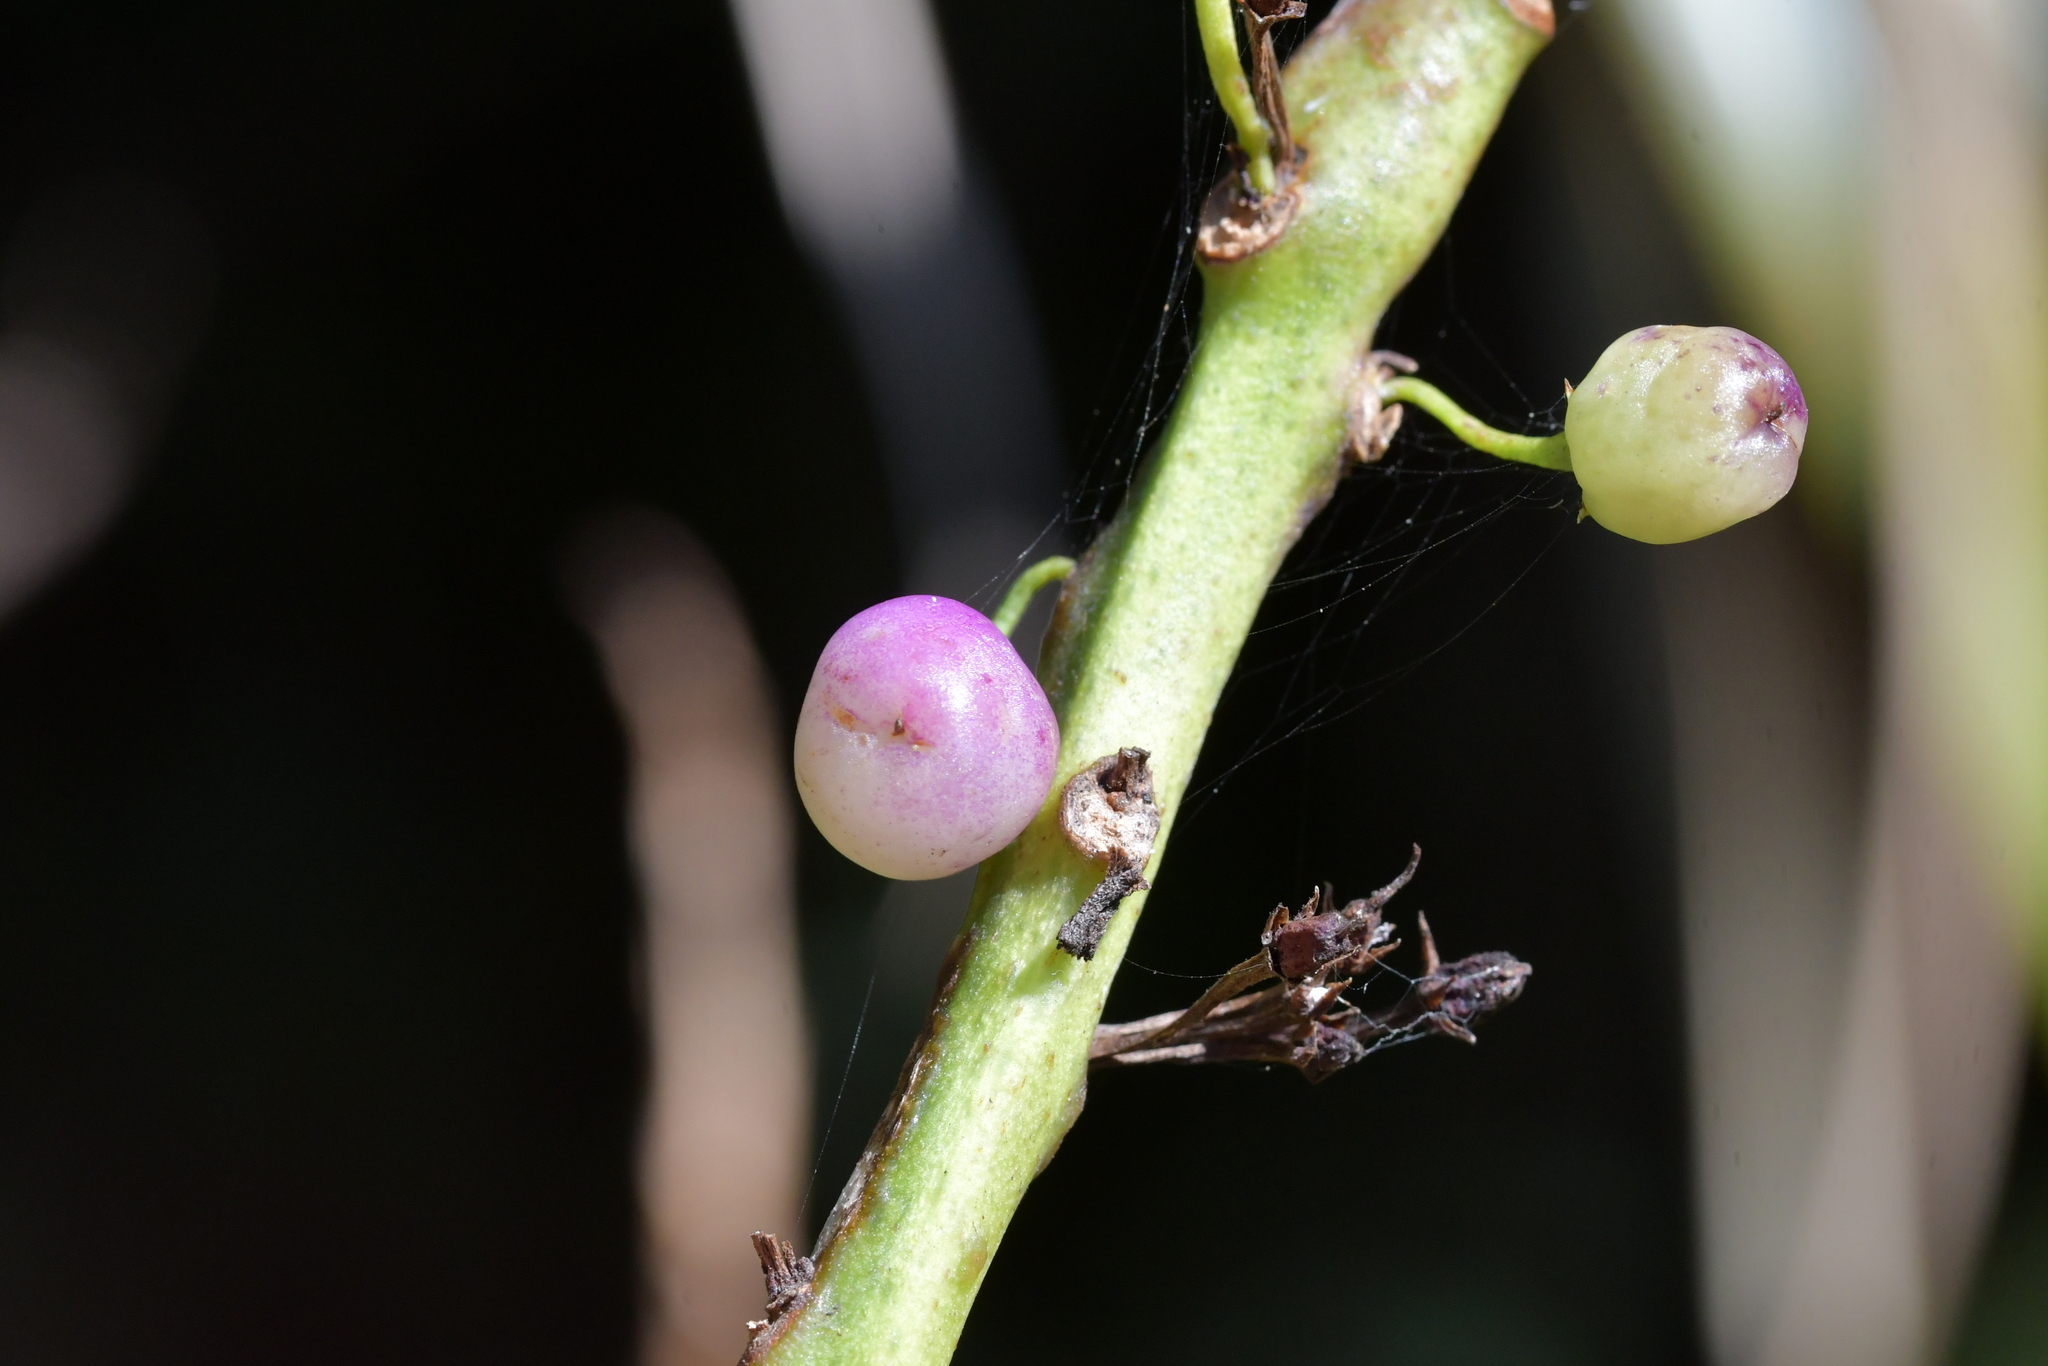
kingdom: Plantae
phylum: Tracheophyta
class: Magnoliopsida
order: Lamiales
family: Scrophulariaceae
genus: Myoporum
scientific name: Myoporum laetum
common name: Ngaio tree
